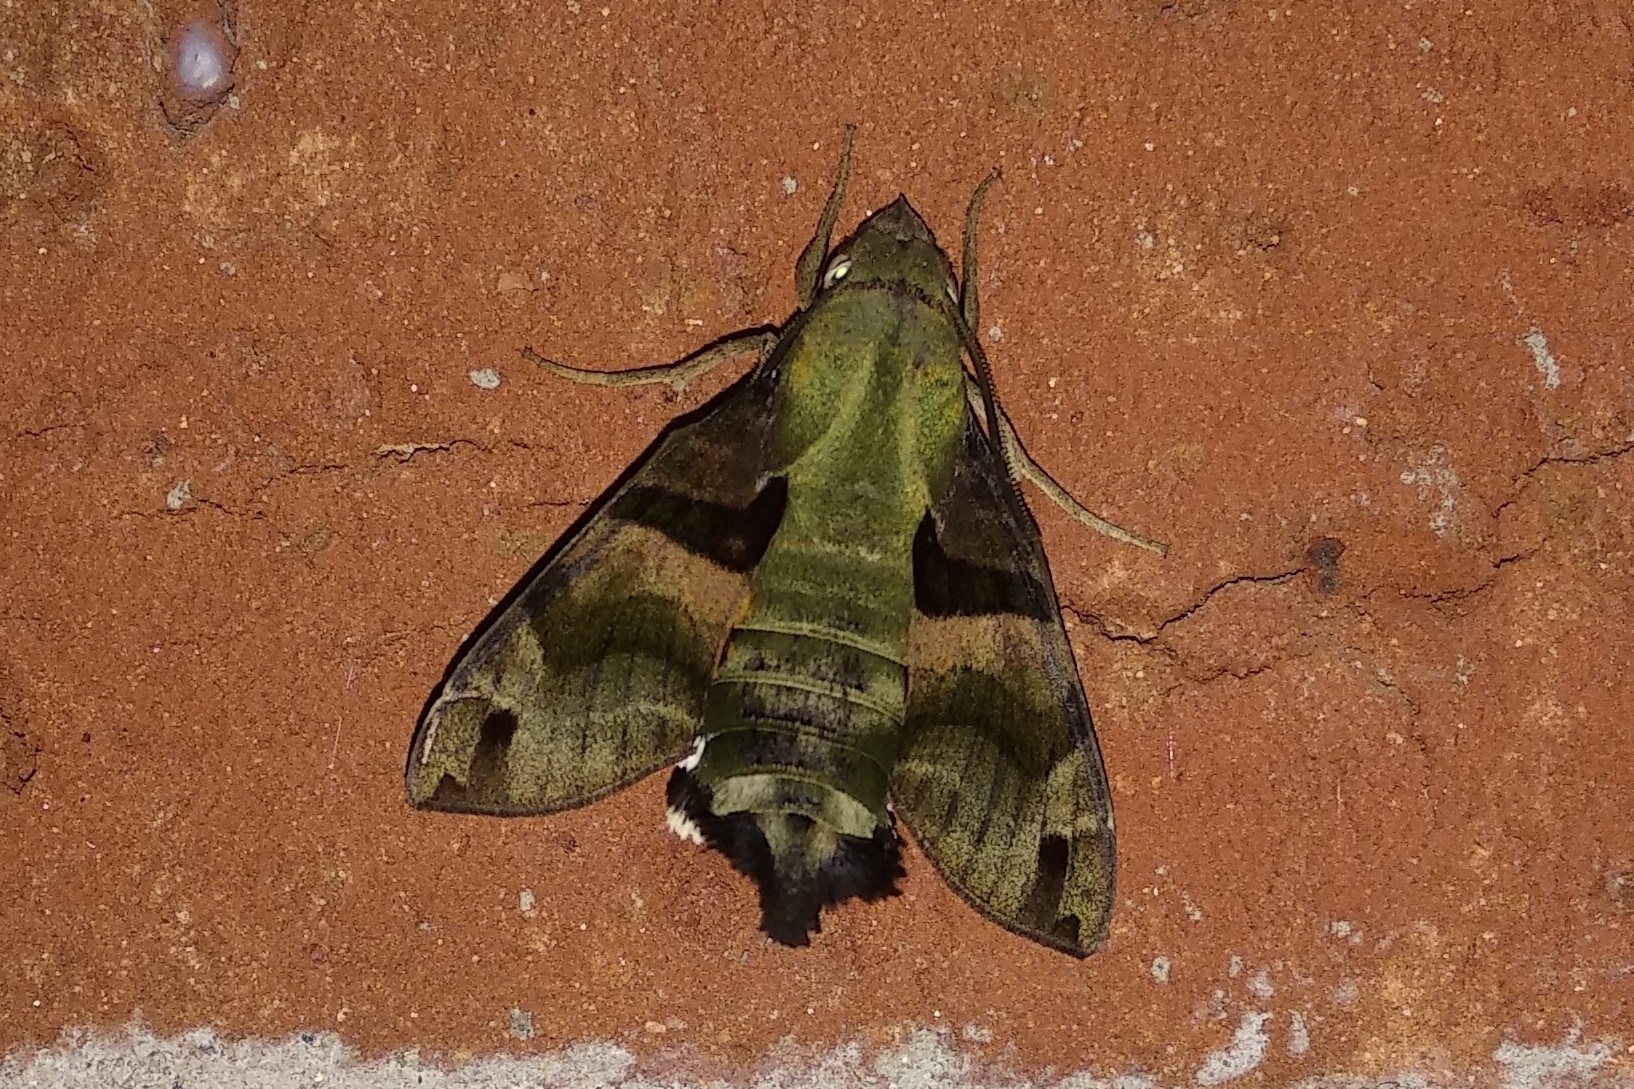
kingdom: Animalia
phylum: Arthropoda
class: Insecta
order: Lepidoptera
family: Sphingidae
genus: Macroglossum
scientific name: Macroglossum sitiene
